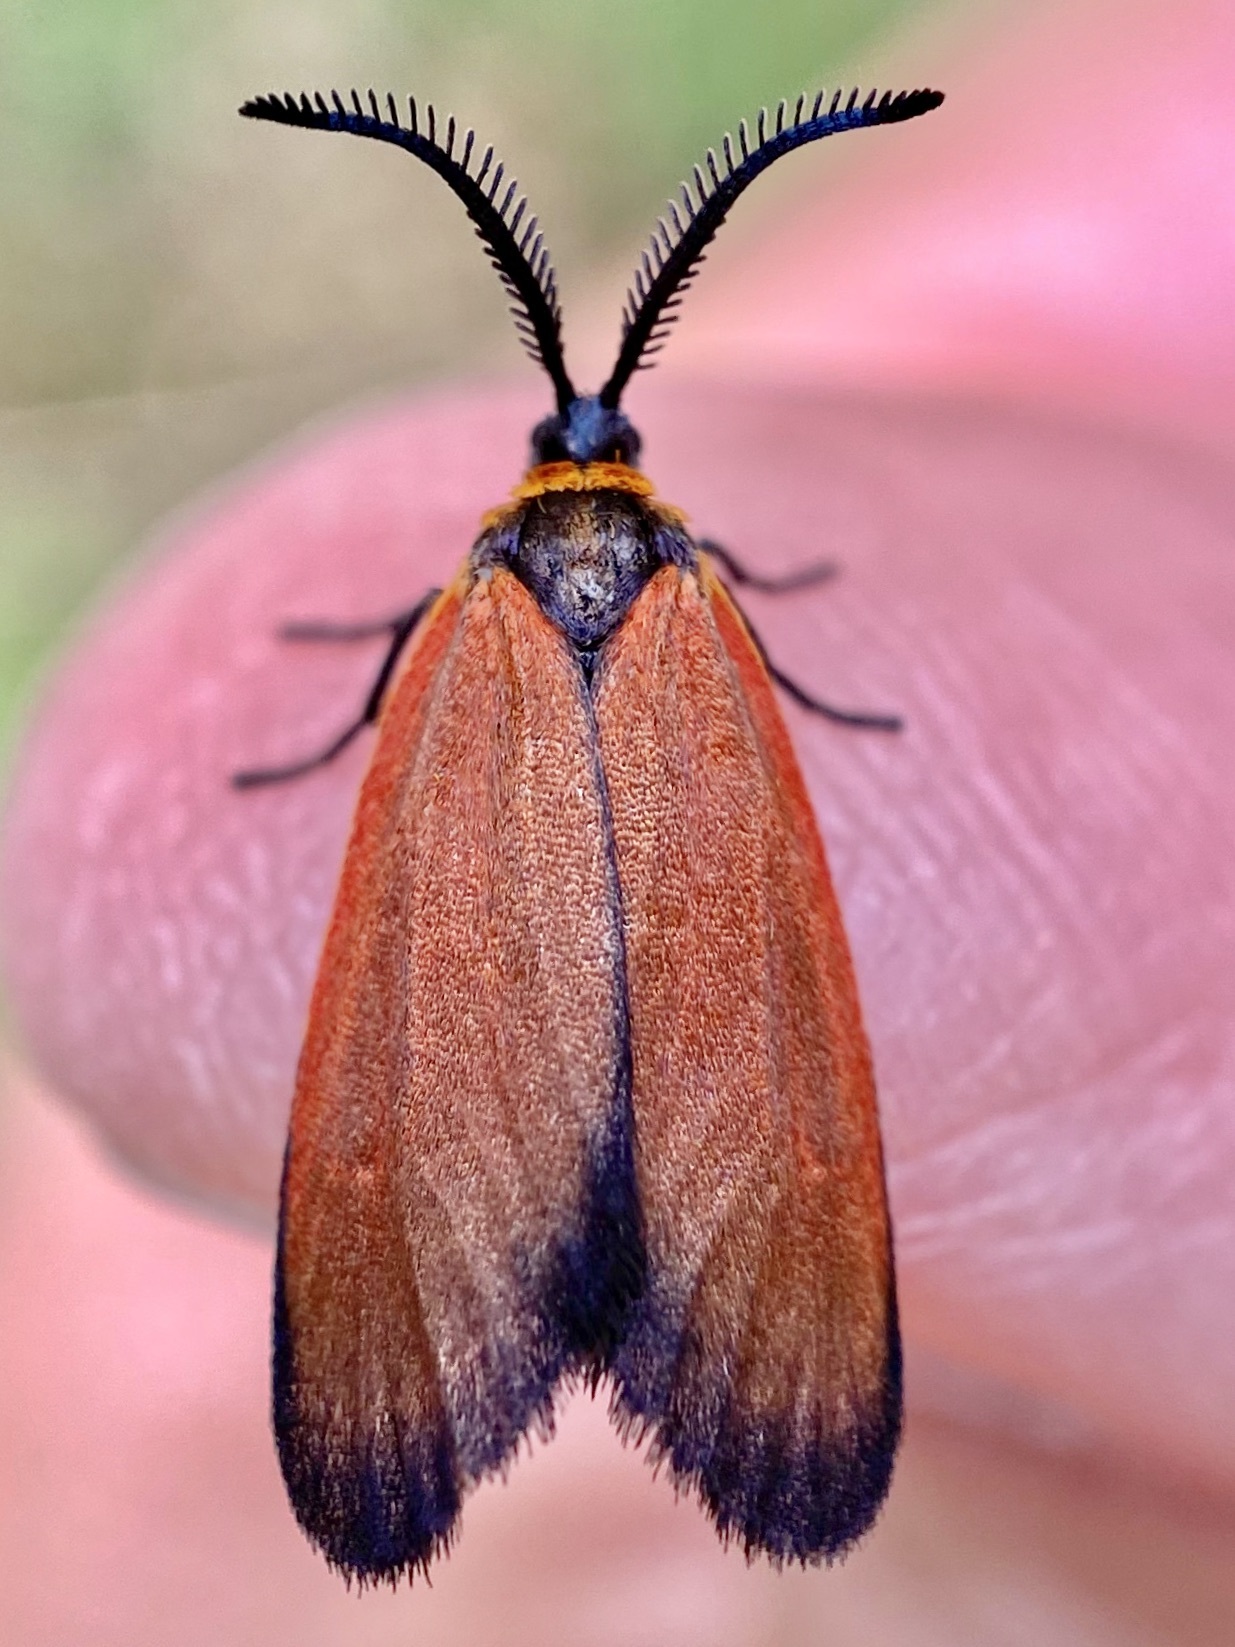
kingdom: Animalia
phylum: Arthropoda
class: Insecta
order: Lepidoptera
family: Zygaenidae
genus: Malthaca
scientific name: Malthaca Pyromorpha dyari
